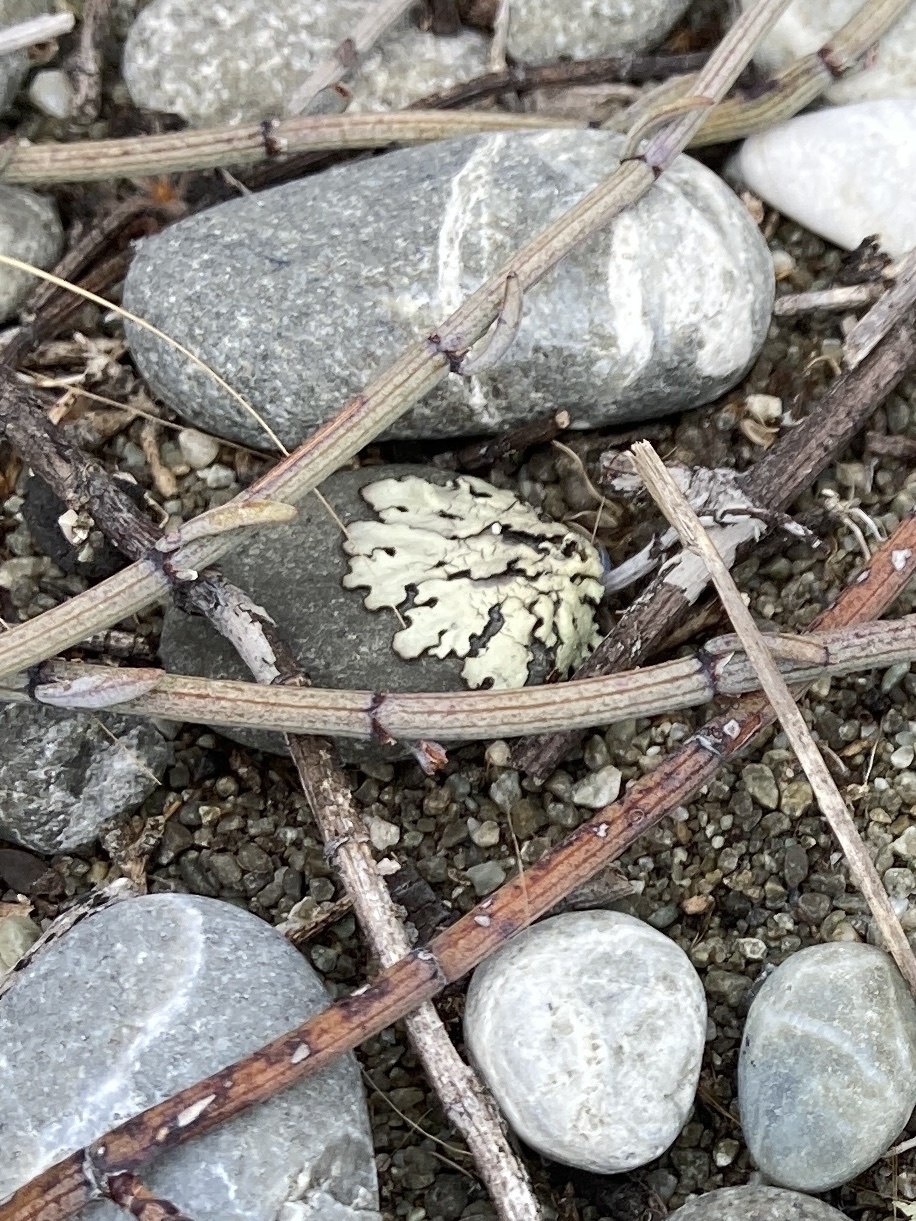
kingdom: Plantae
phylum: Tracheophyta
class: Magnoliopsida
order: Caryophyllales
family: Polygonaceae
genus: Muehlenbeckia
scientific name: Muehlenbeckia ephedroides
